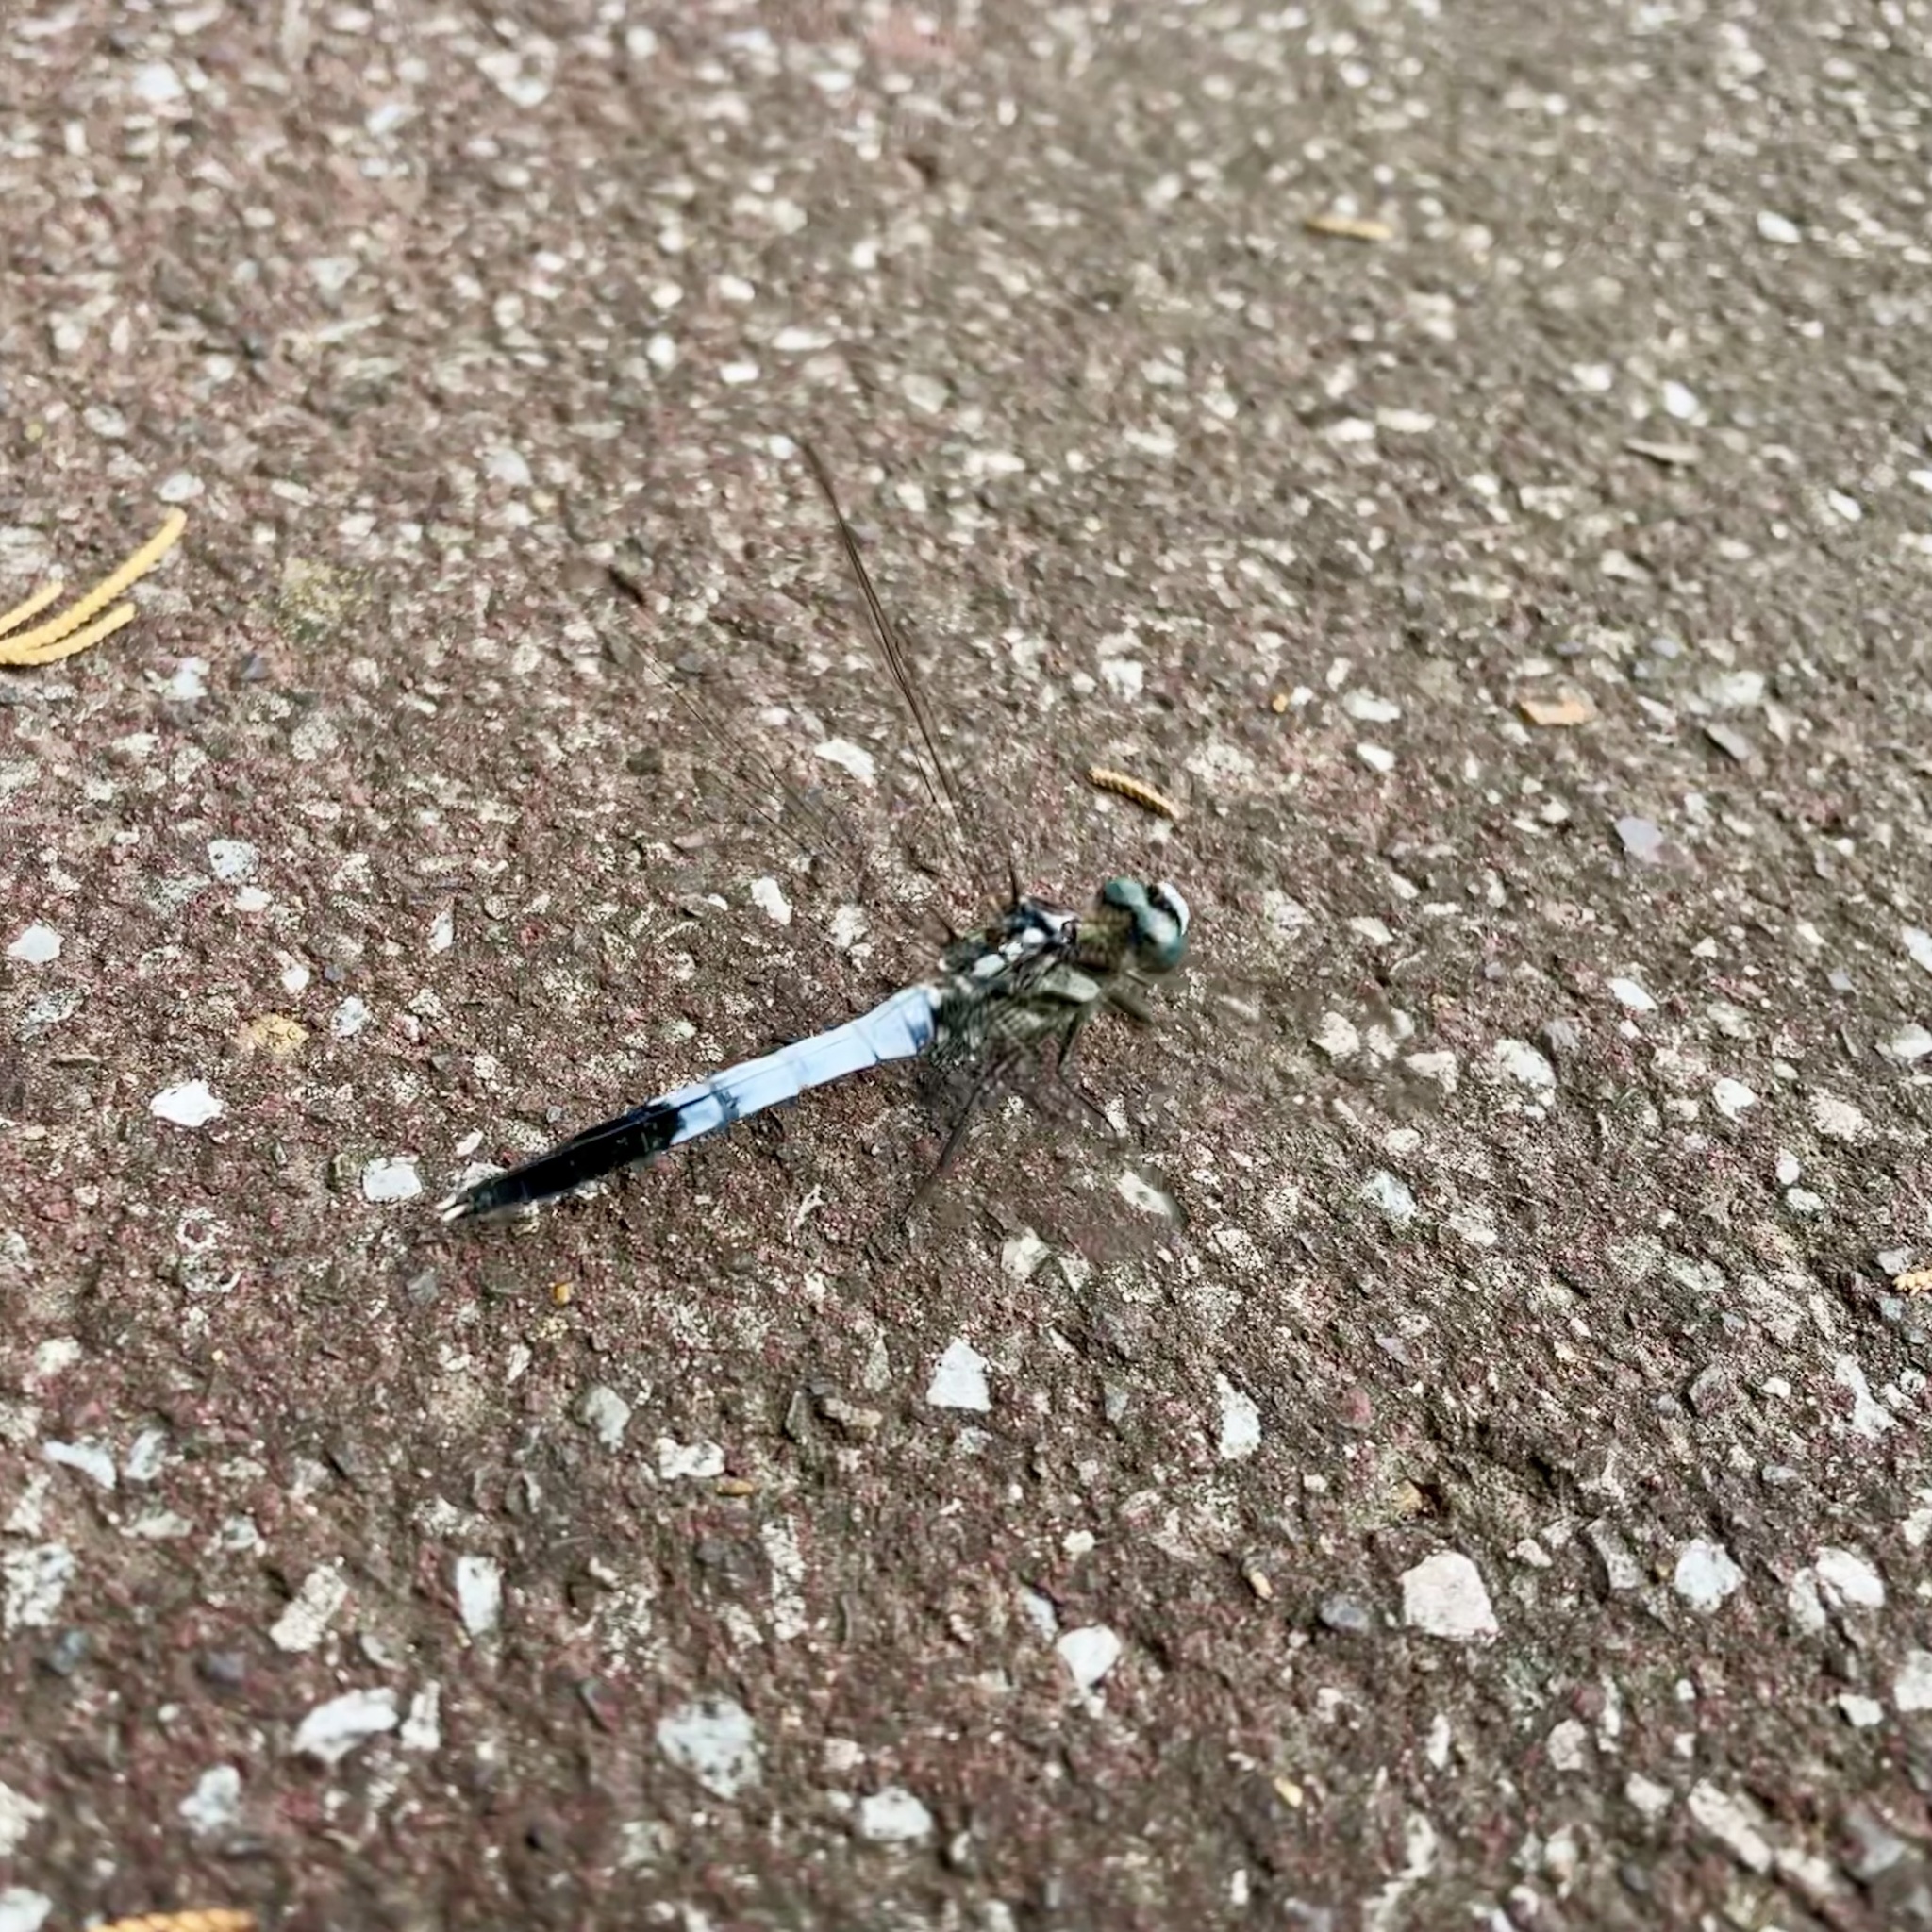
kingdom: Animalia
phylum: Arthropoda
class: Insecta
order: Odonata
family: Libellulidae
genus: Orthetrum
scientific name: Orthetrum albistylum
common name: White-tailed skimmer
